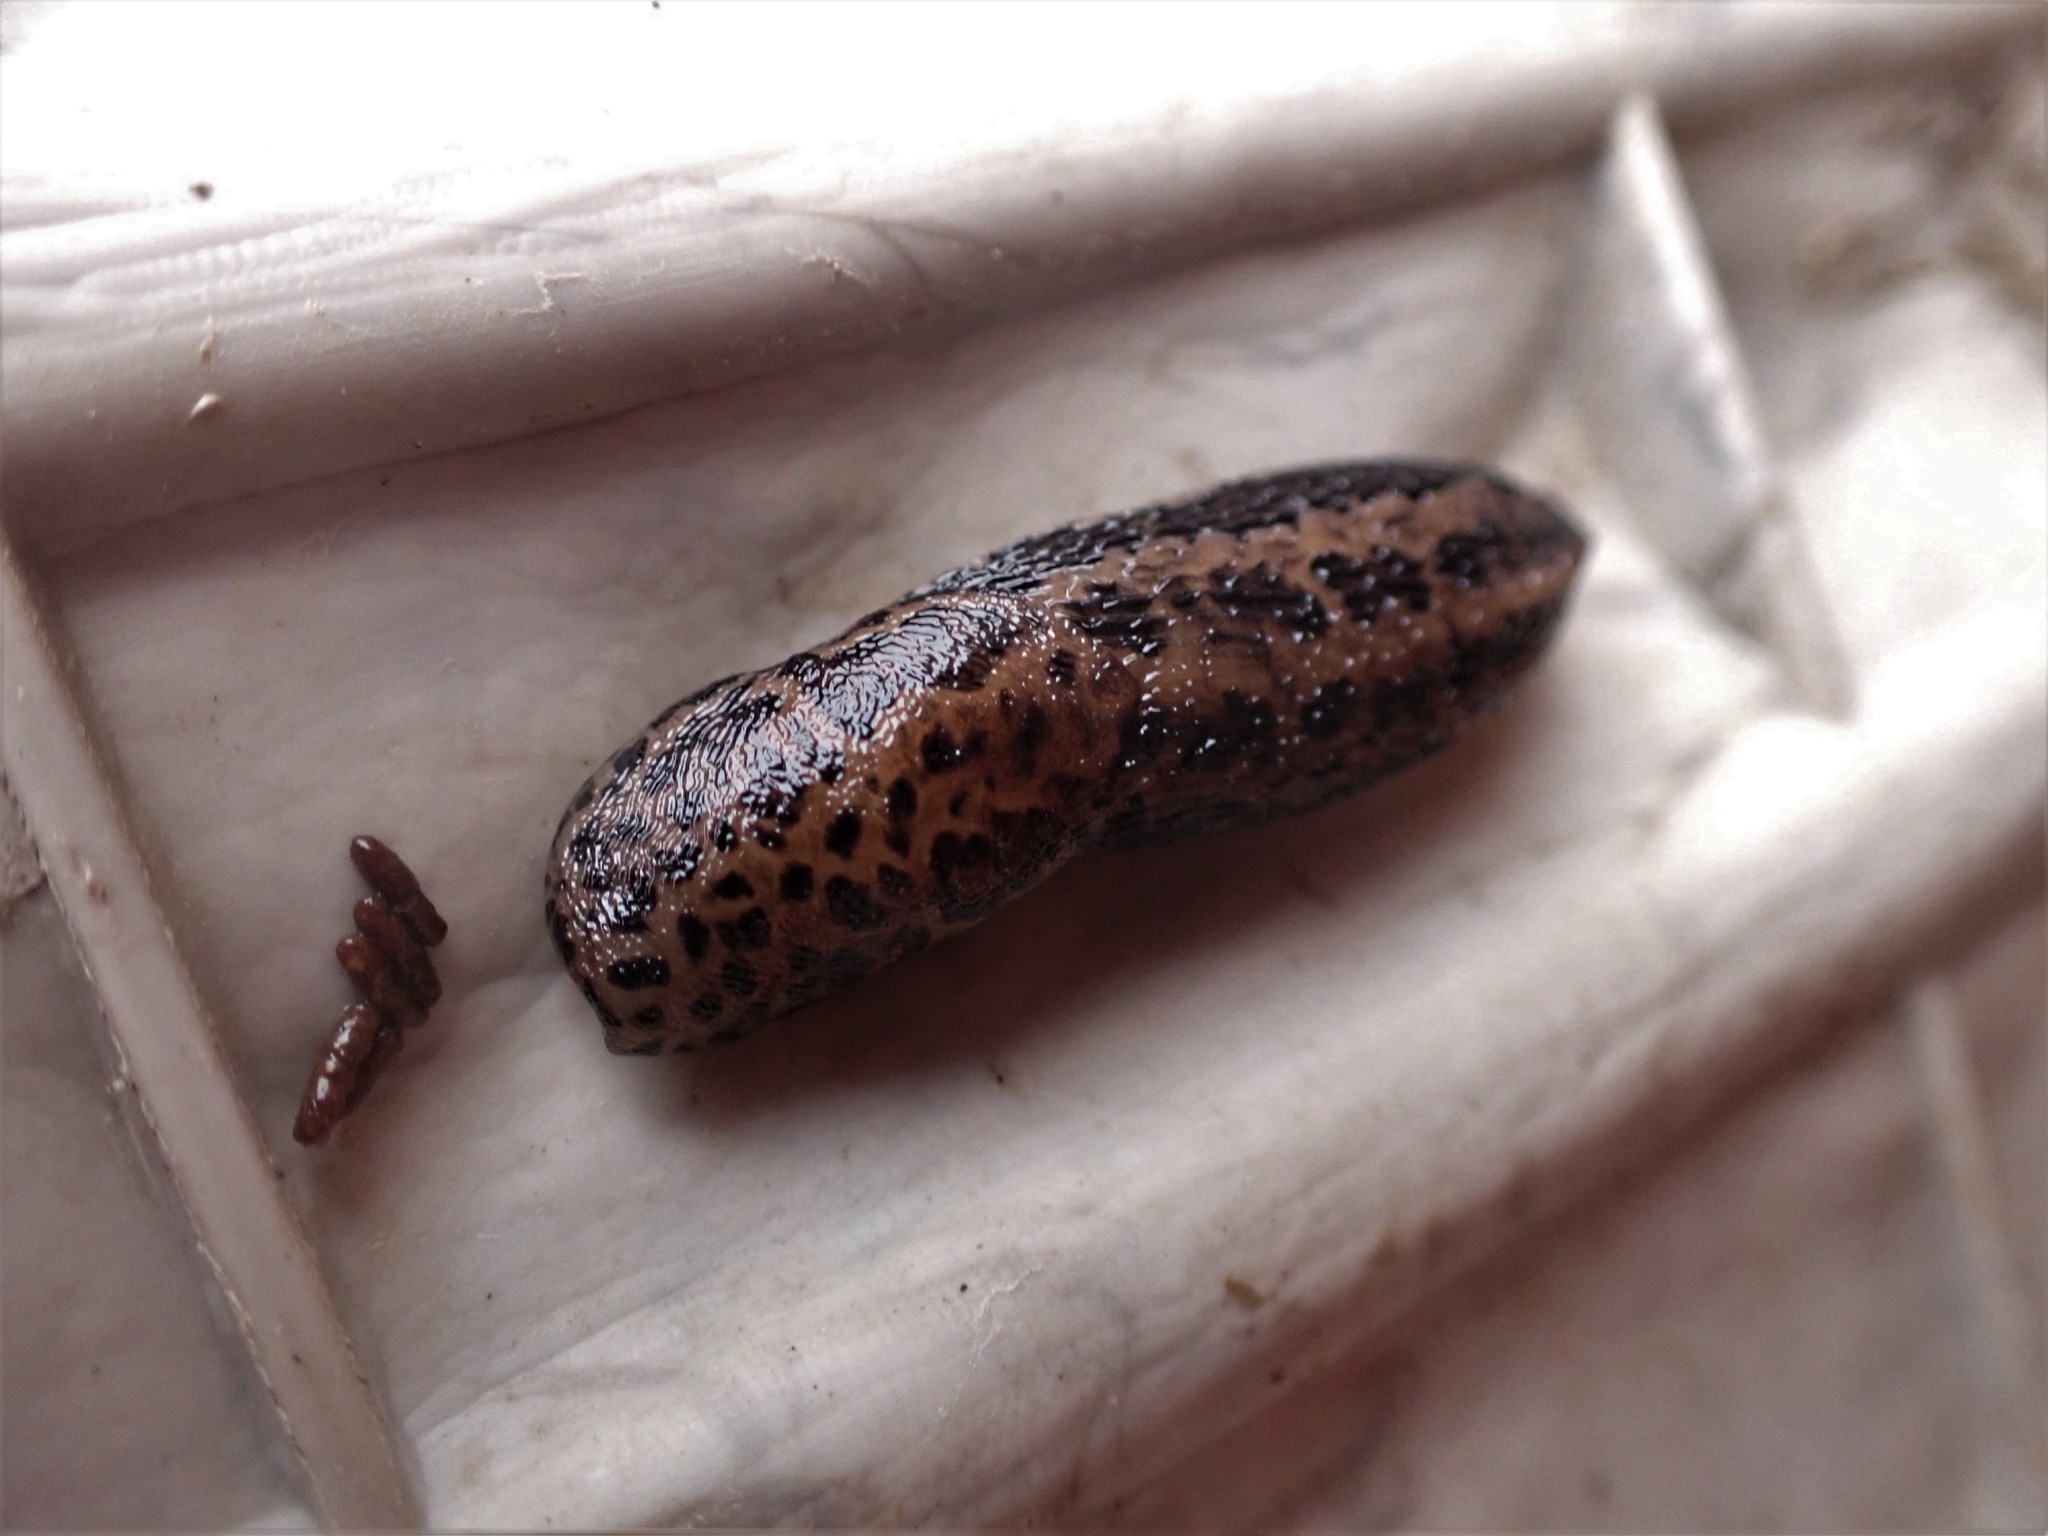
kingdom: Animalia
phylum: Mollusca
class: Gastropoda
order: Stylommatophora
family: Limacidae
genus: Limax
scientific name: Limax maximus
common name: Great grey slug
